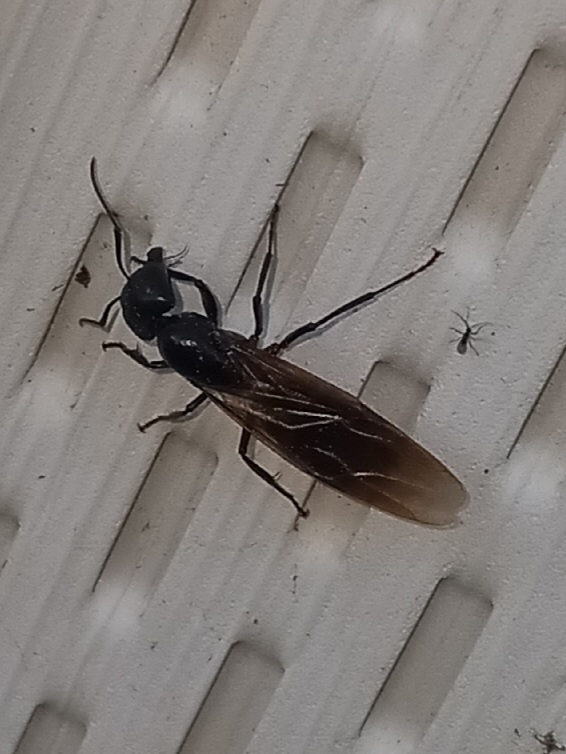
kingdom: Animalia
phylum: Arthropoda
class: Insecta
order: Hymenoptera
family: Formicidae
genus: Camponotus
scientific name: Camponotus pennsylvanicus
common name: Black carpenter ant
